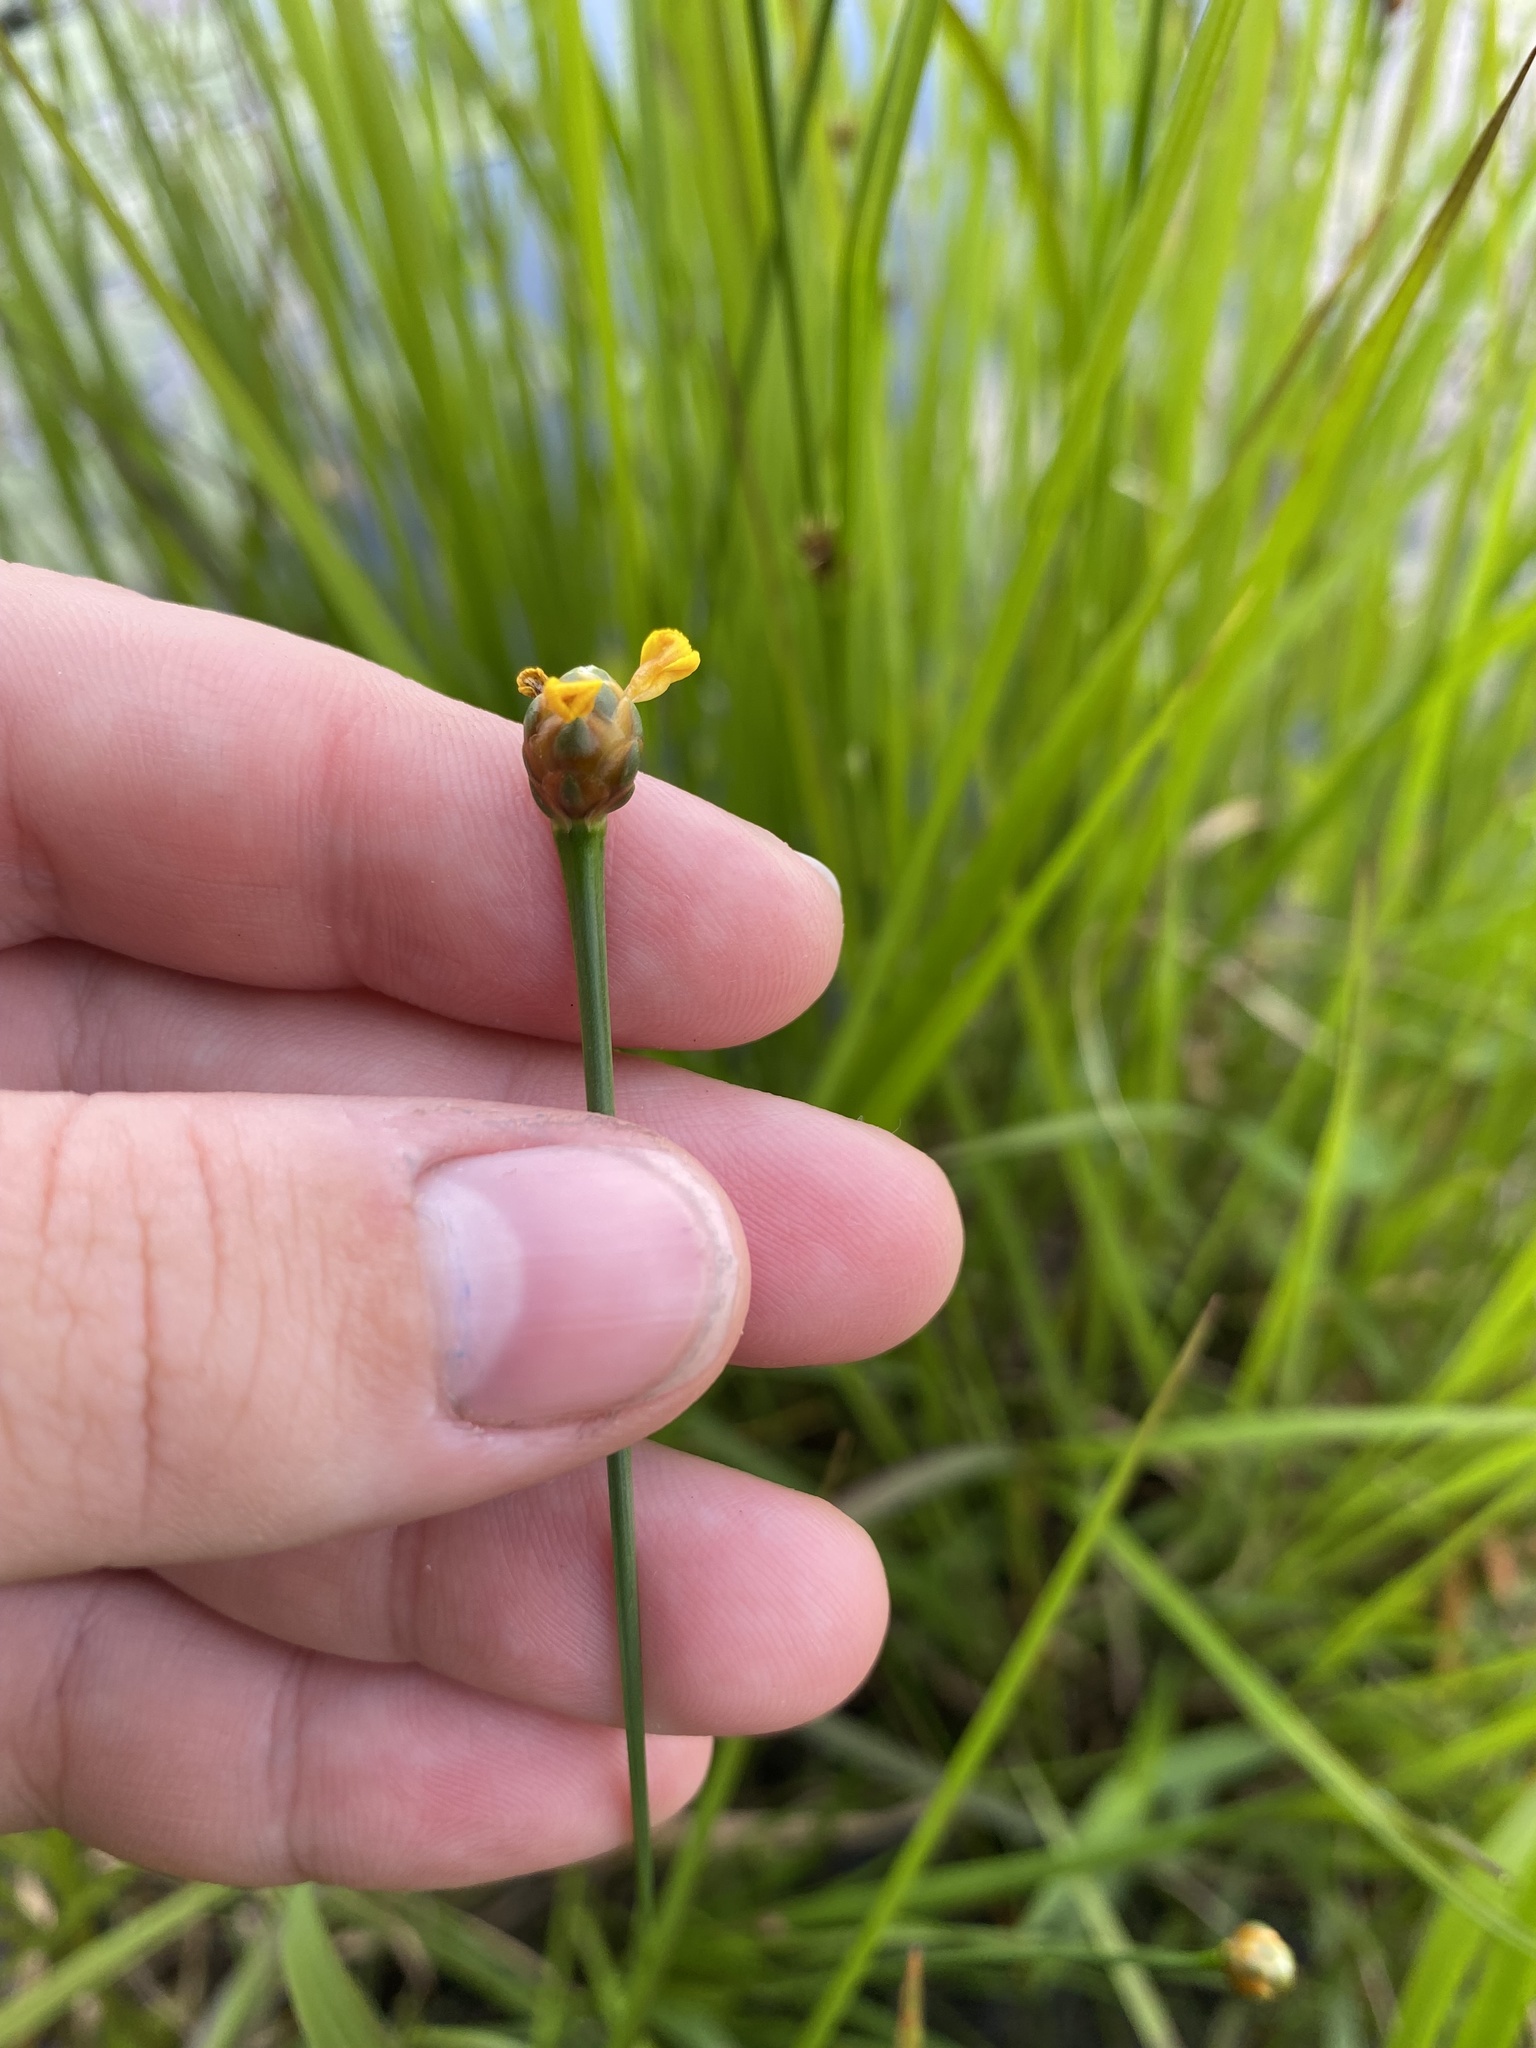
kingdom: Plantae
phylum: Tracheophyta
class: Liliopsida
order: Poales
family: Xyridaceae
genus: Xyris
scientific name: Xyris difformis
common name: Bog yellow-eyed-grass
